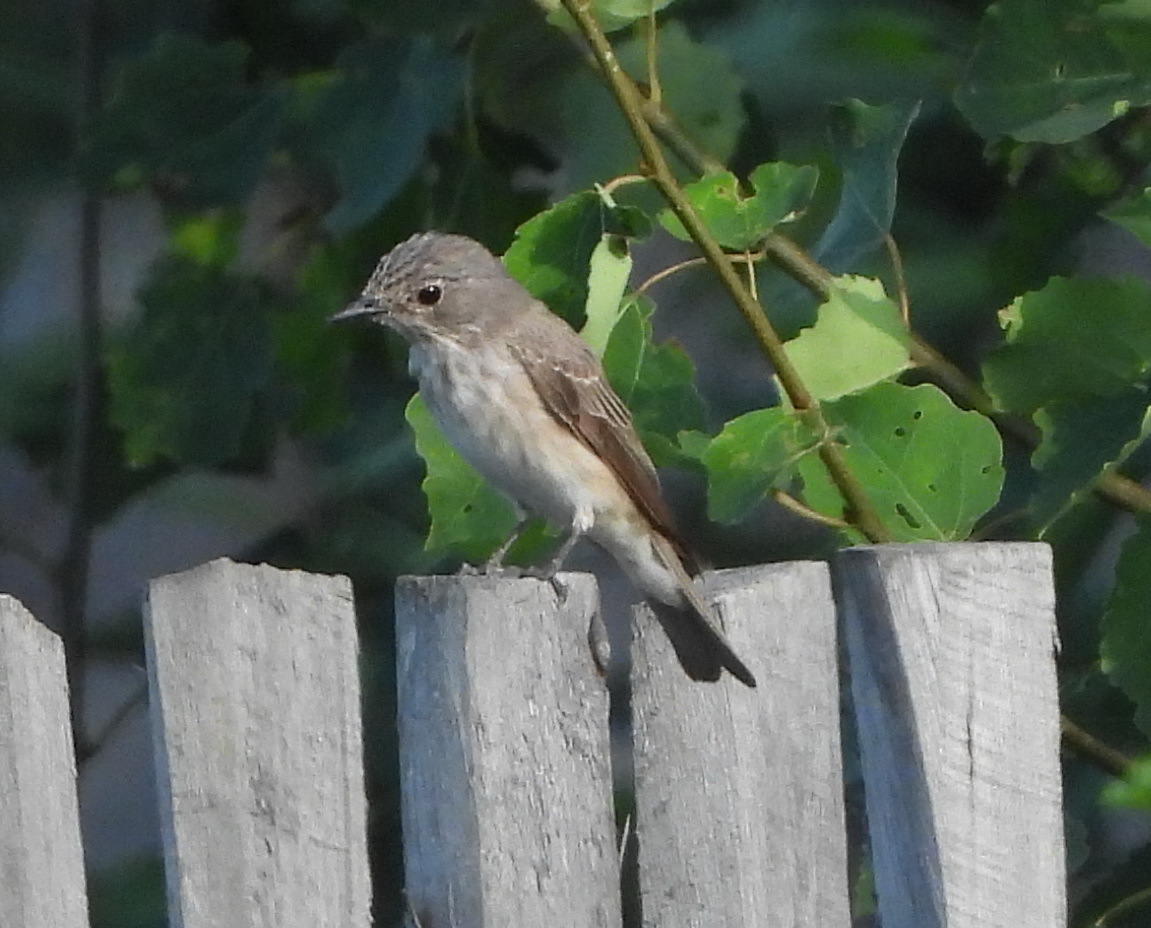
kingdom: Animalia
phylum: Chordata
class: Aves
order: Passeriformes
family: Muscicapidae
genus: Muscicapa
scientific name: Muscicapa striata
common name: Spotted flycatcher
